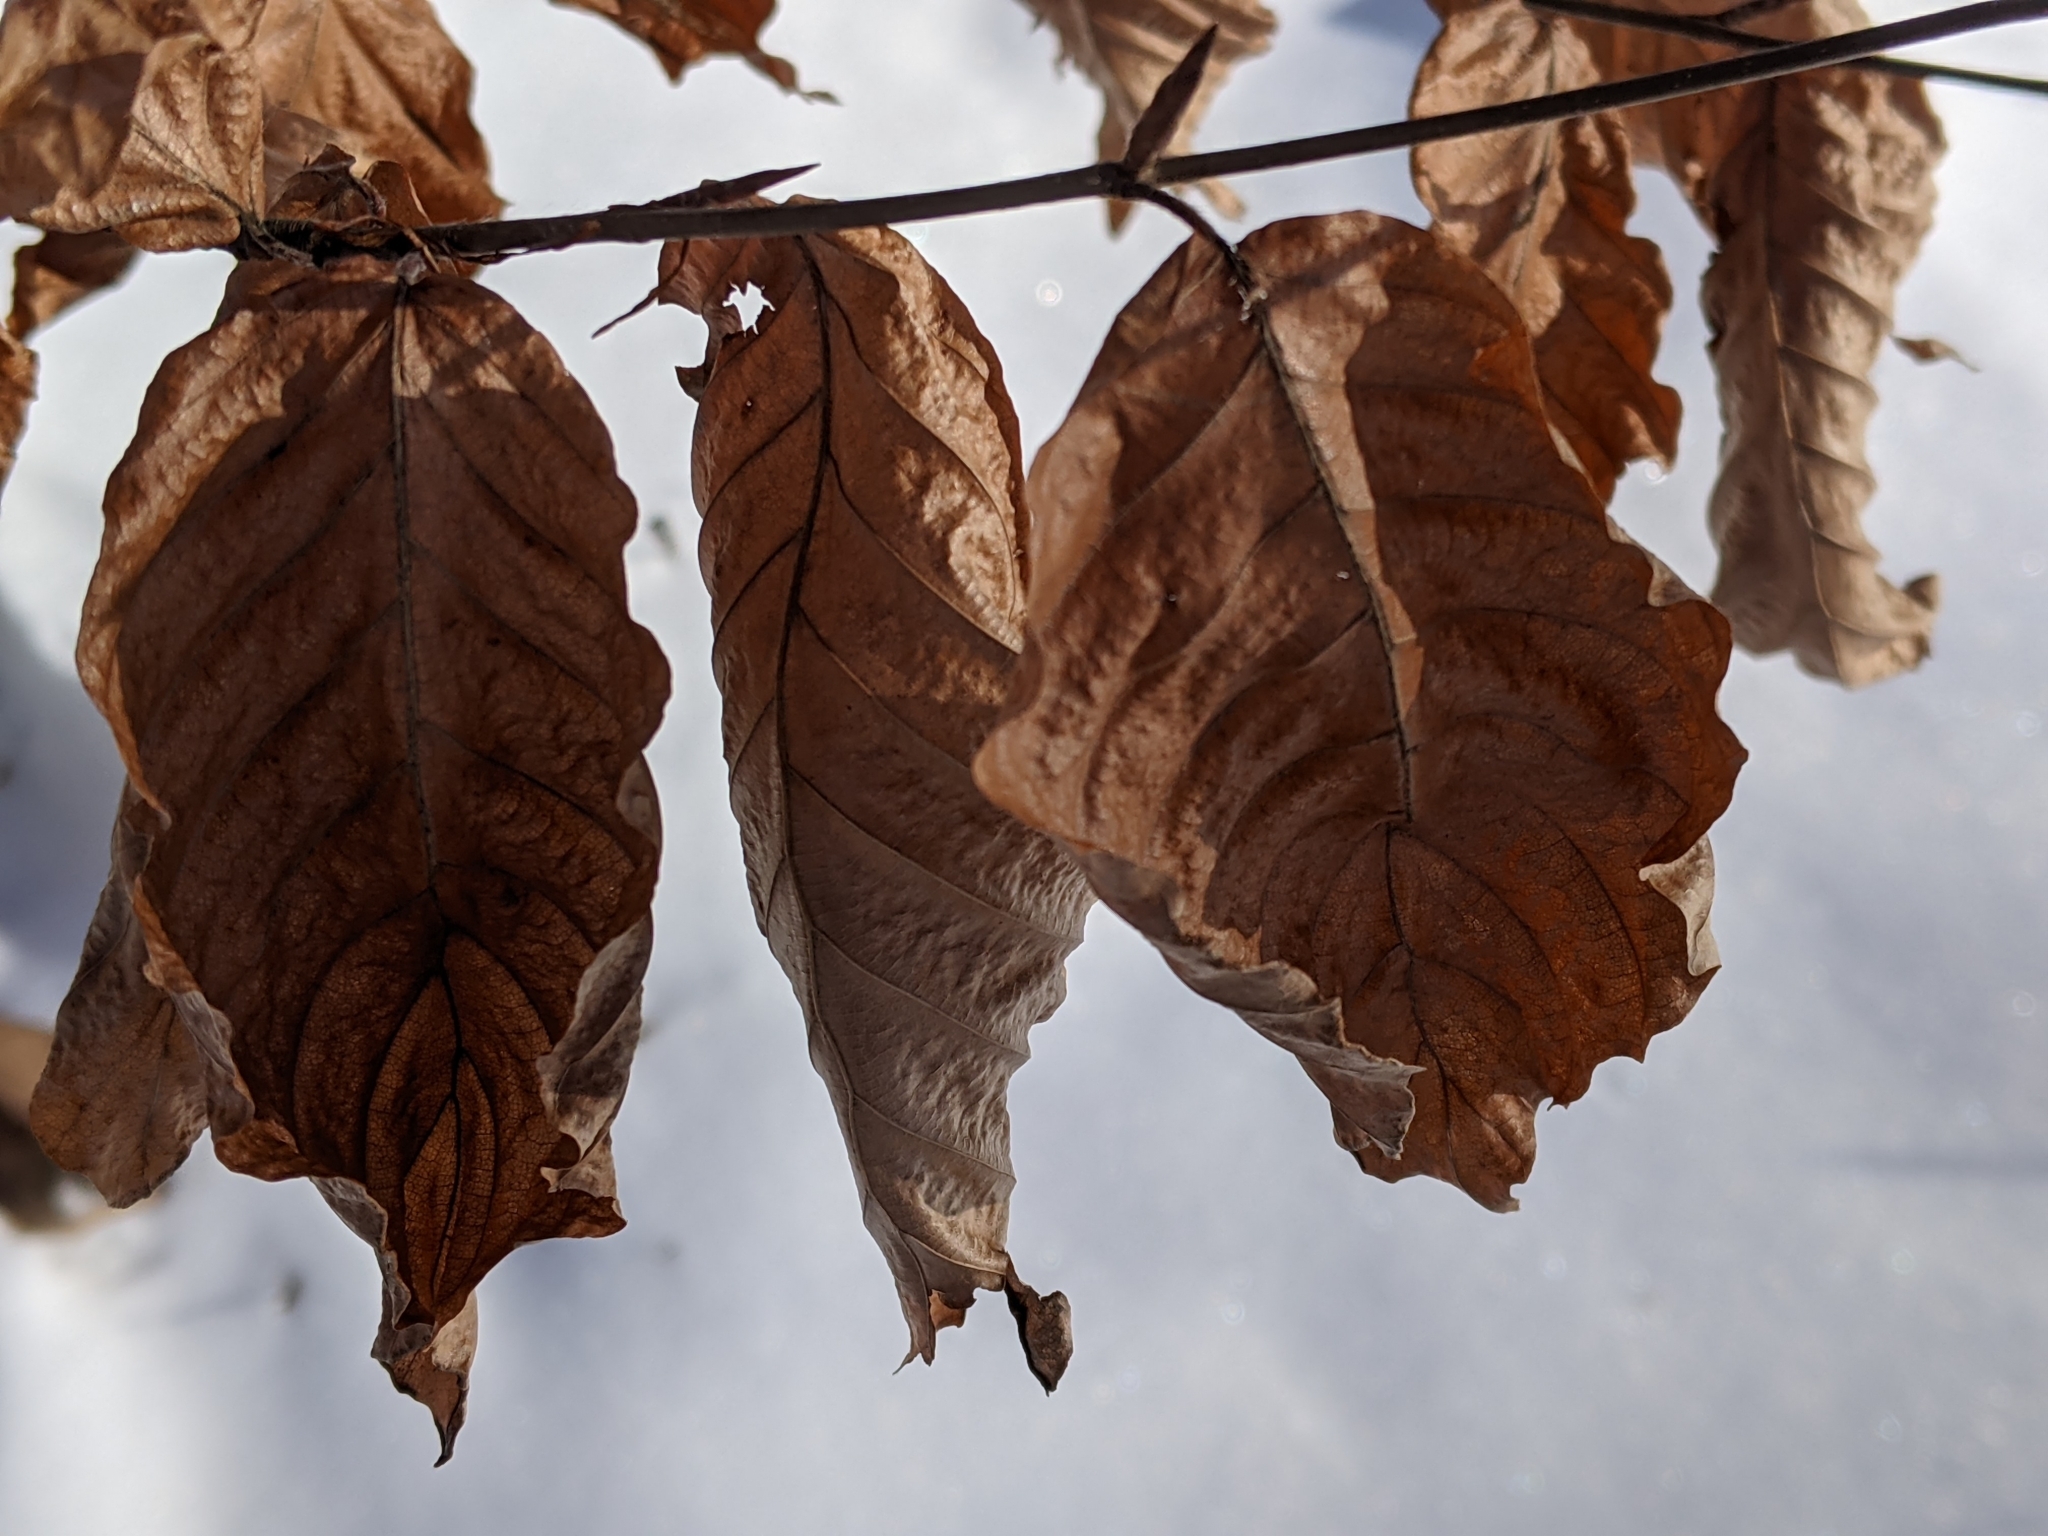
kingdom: Plantae
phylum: Tracheophyta
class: Magnoliopsida
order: Fagales
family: Fagaceae
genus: Fagus
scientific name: Fagus sylvatica
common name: Beech
